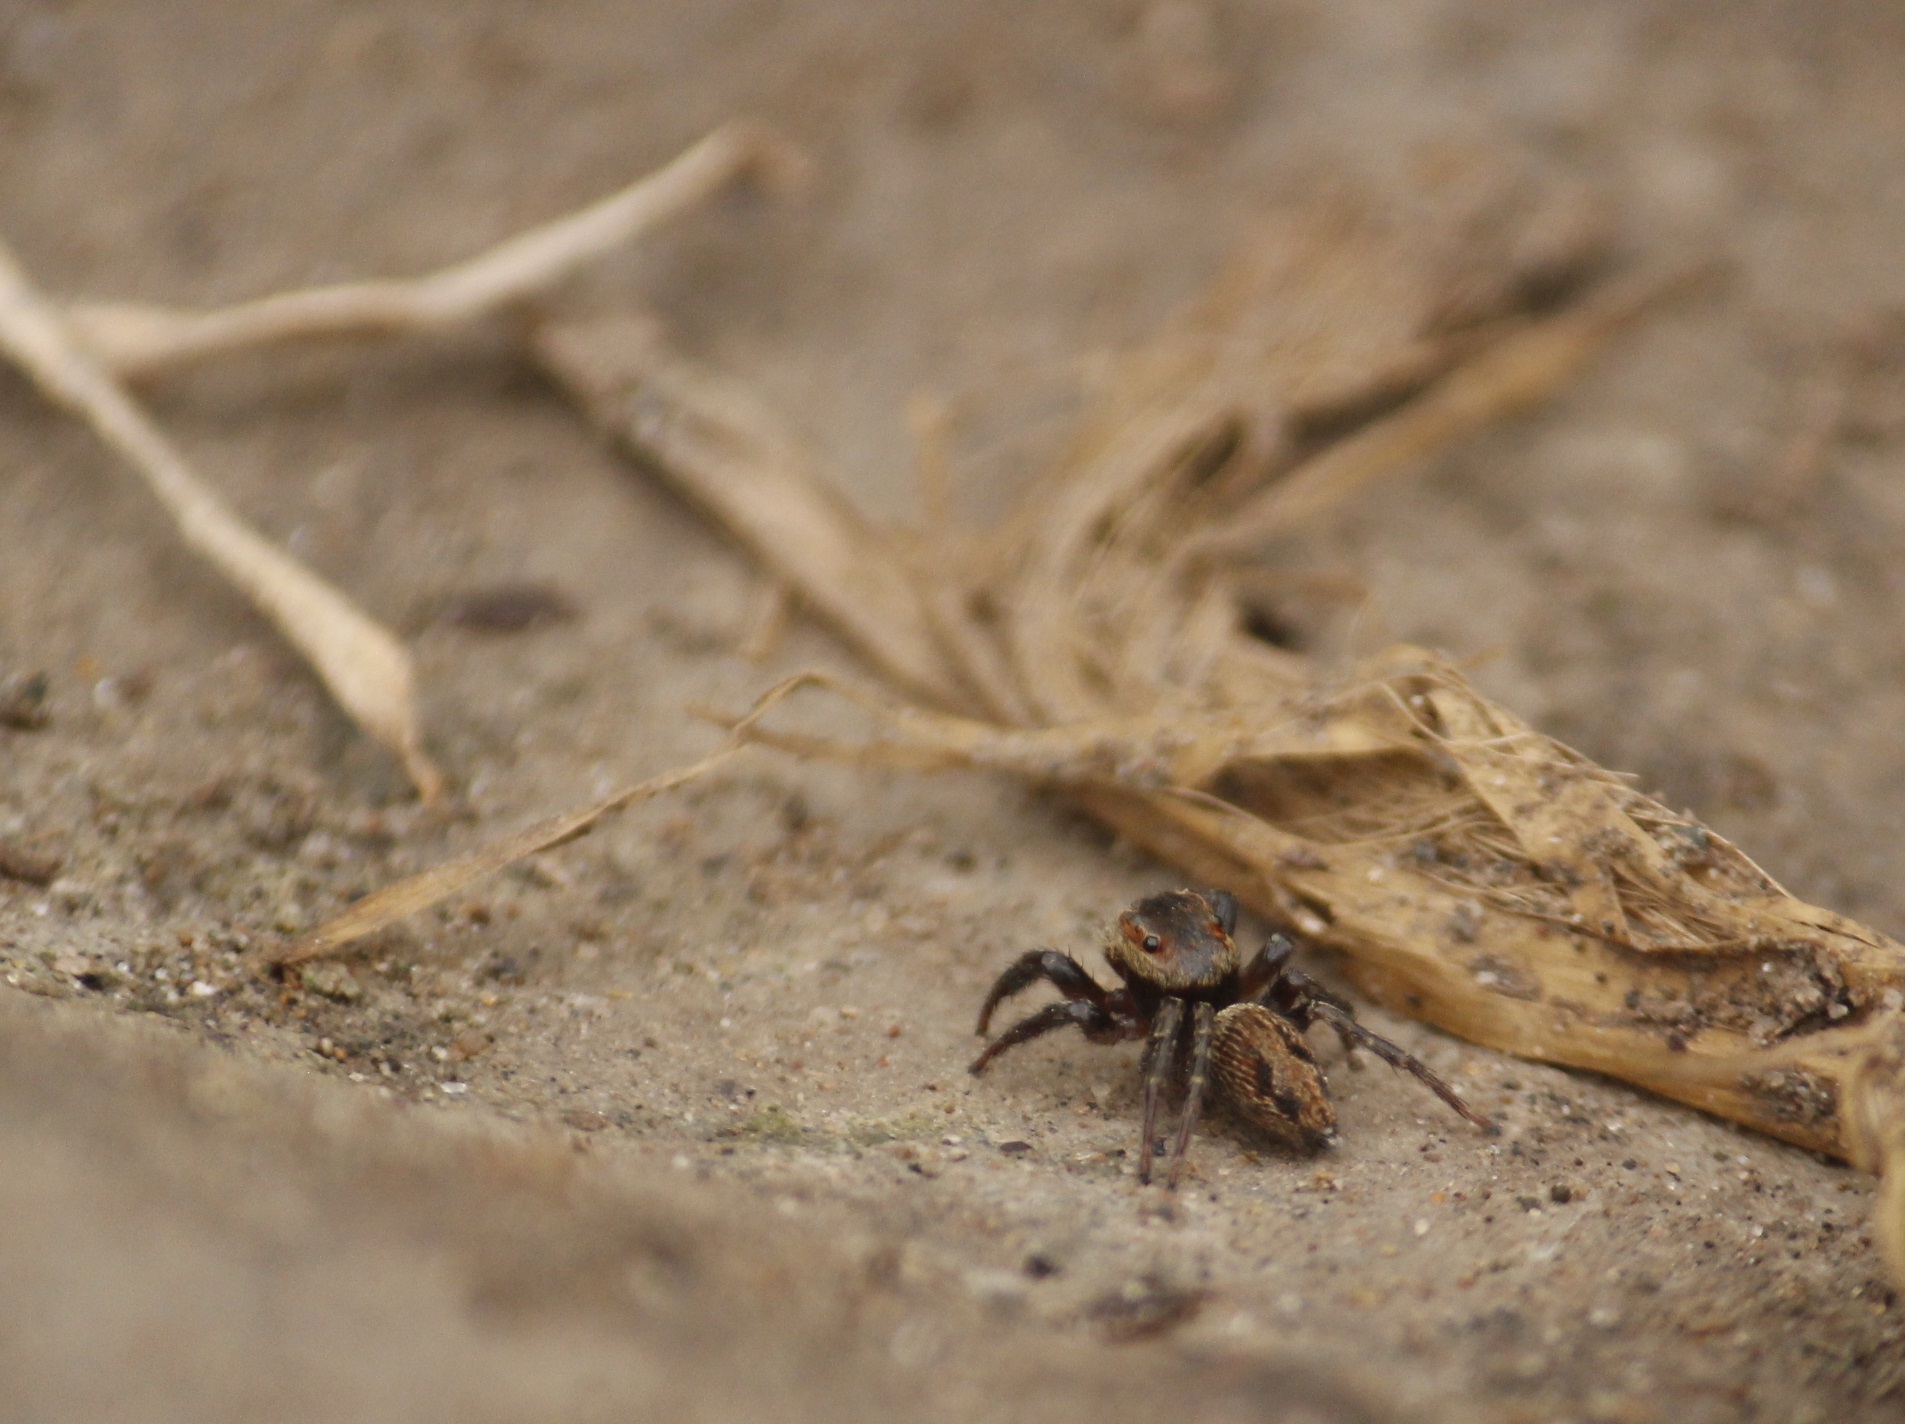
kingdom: Animalia
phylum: Arthropoda
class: Arachnida
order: Araneae
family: Salticidae
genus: Hasarius
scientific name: Hasarius adansoni
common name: Jumping spider
